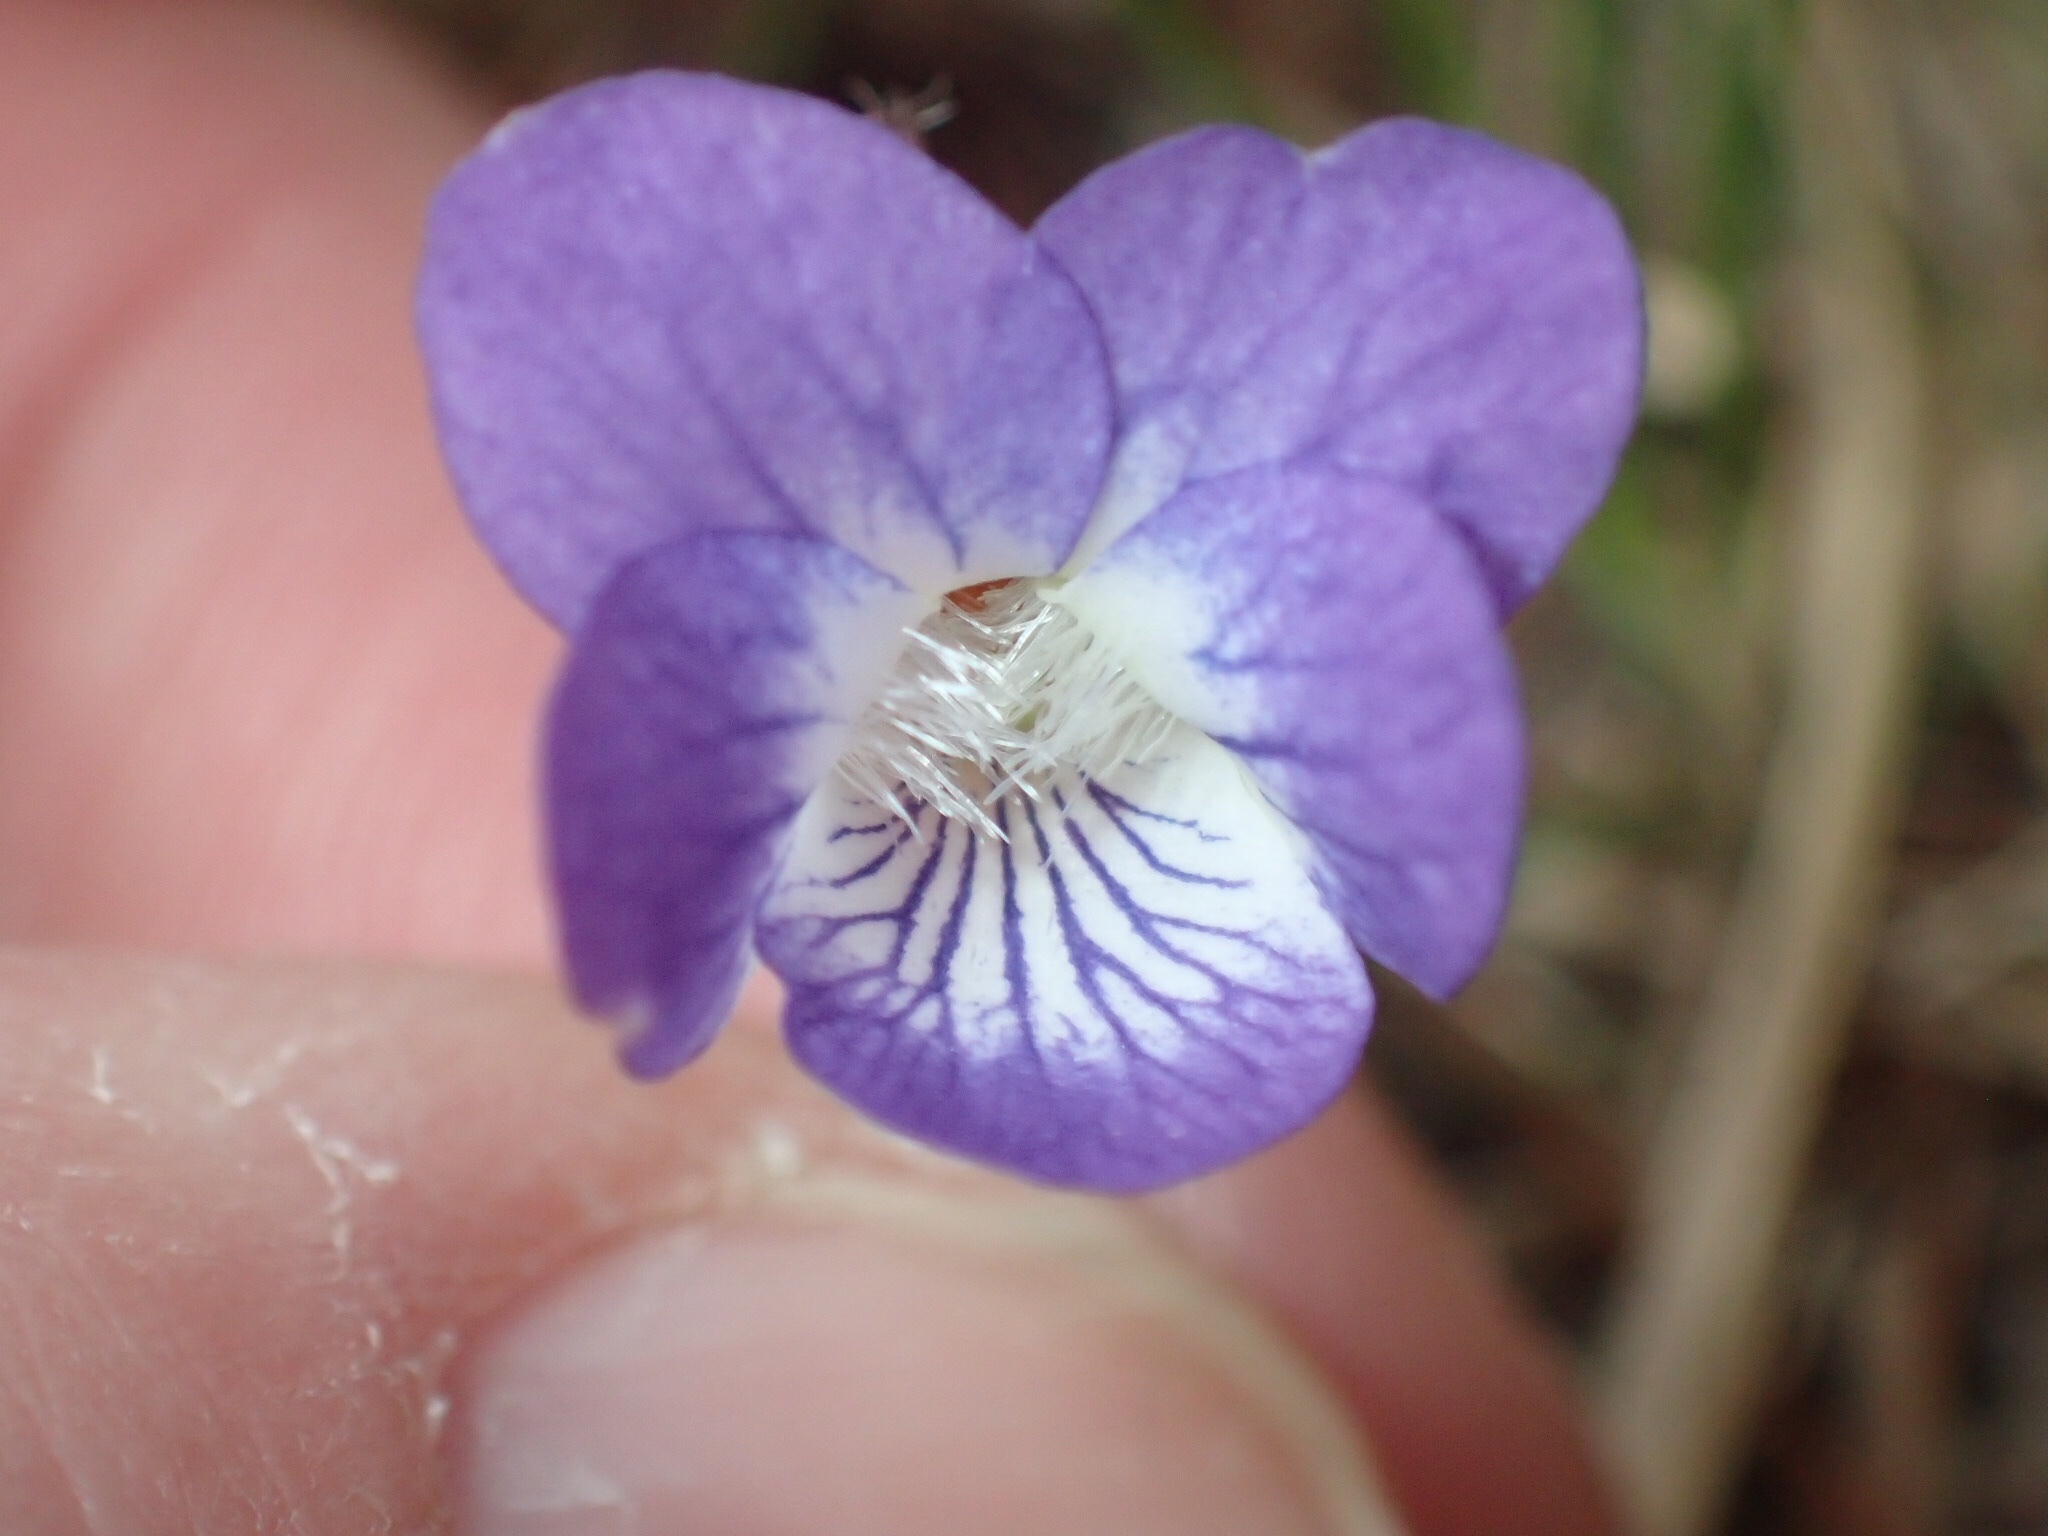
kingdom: Plantae
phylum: Tracheophyta
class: Magnoliopsida
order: Malpighiales
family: Violaceae
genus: Viola
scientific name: Viola sororia
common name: Dooryard violet
